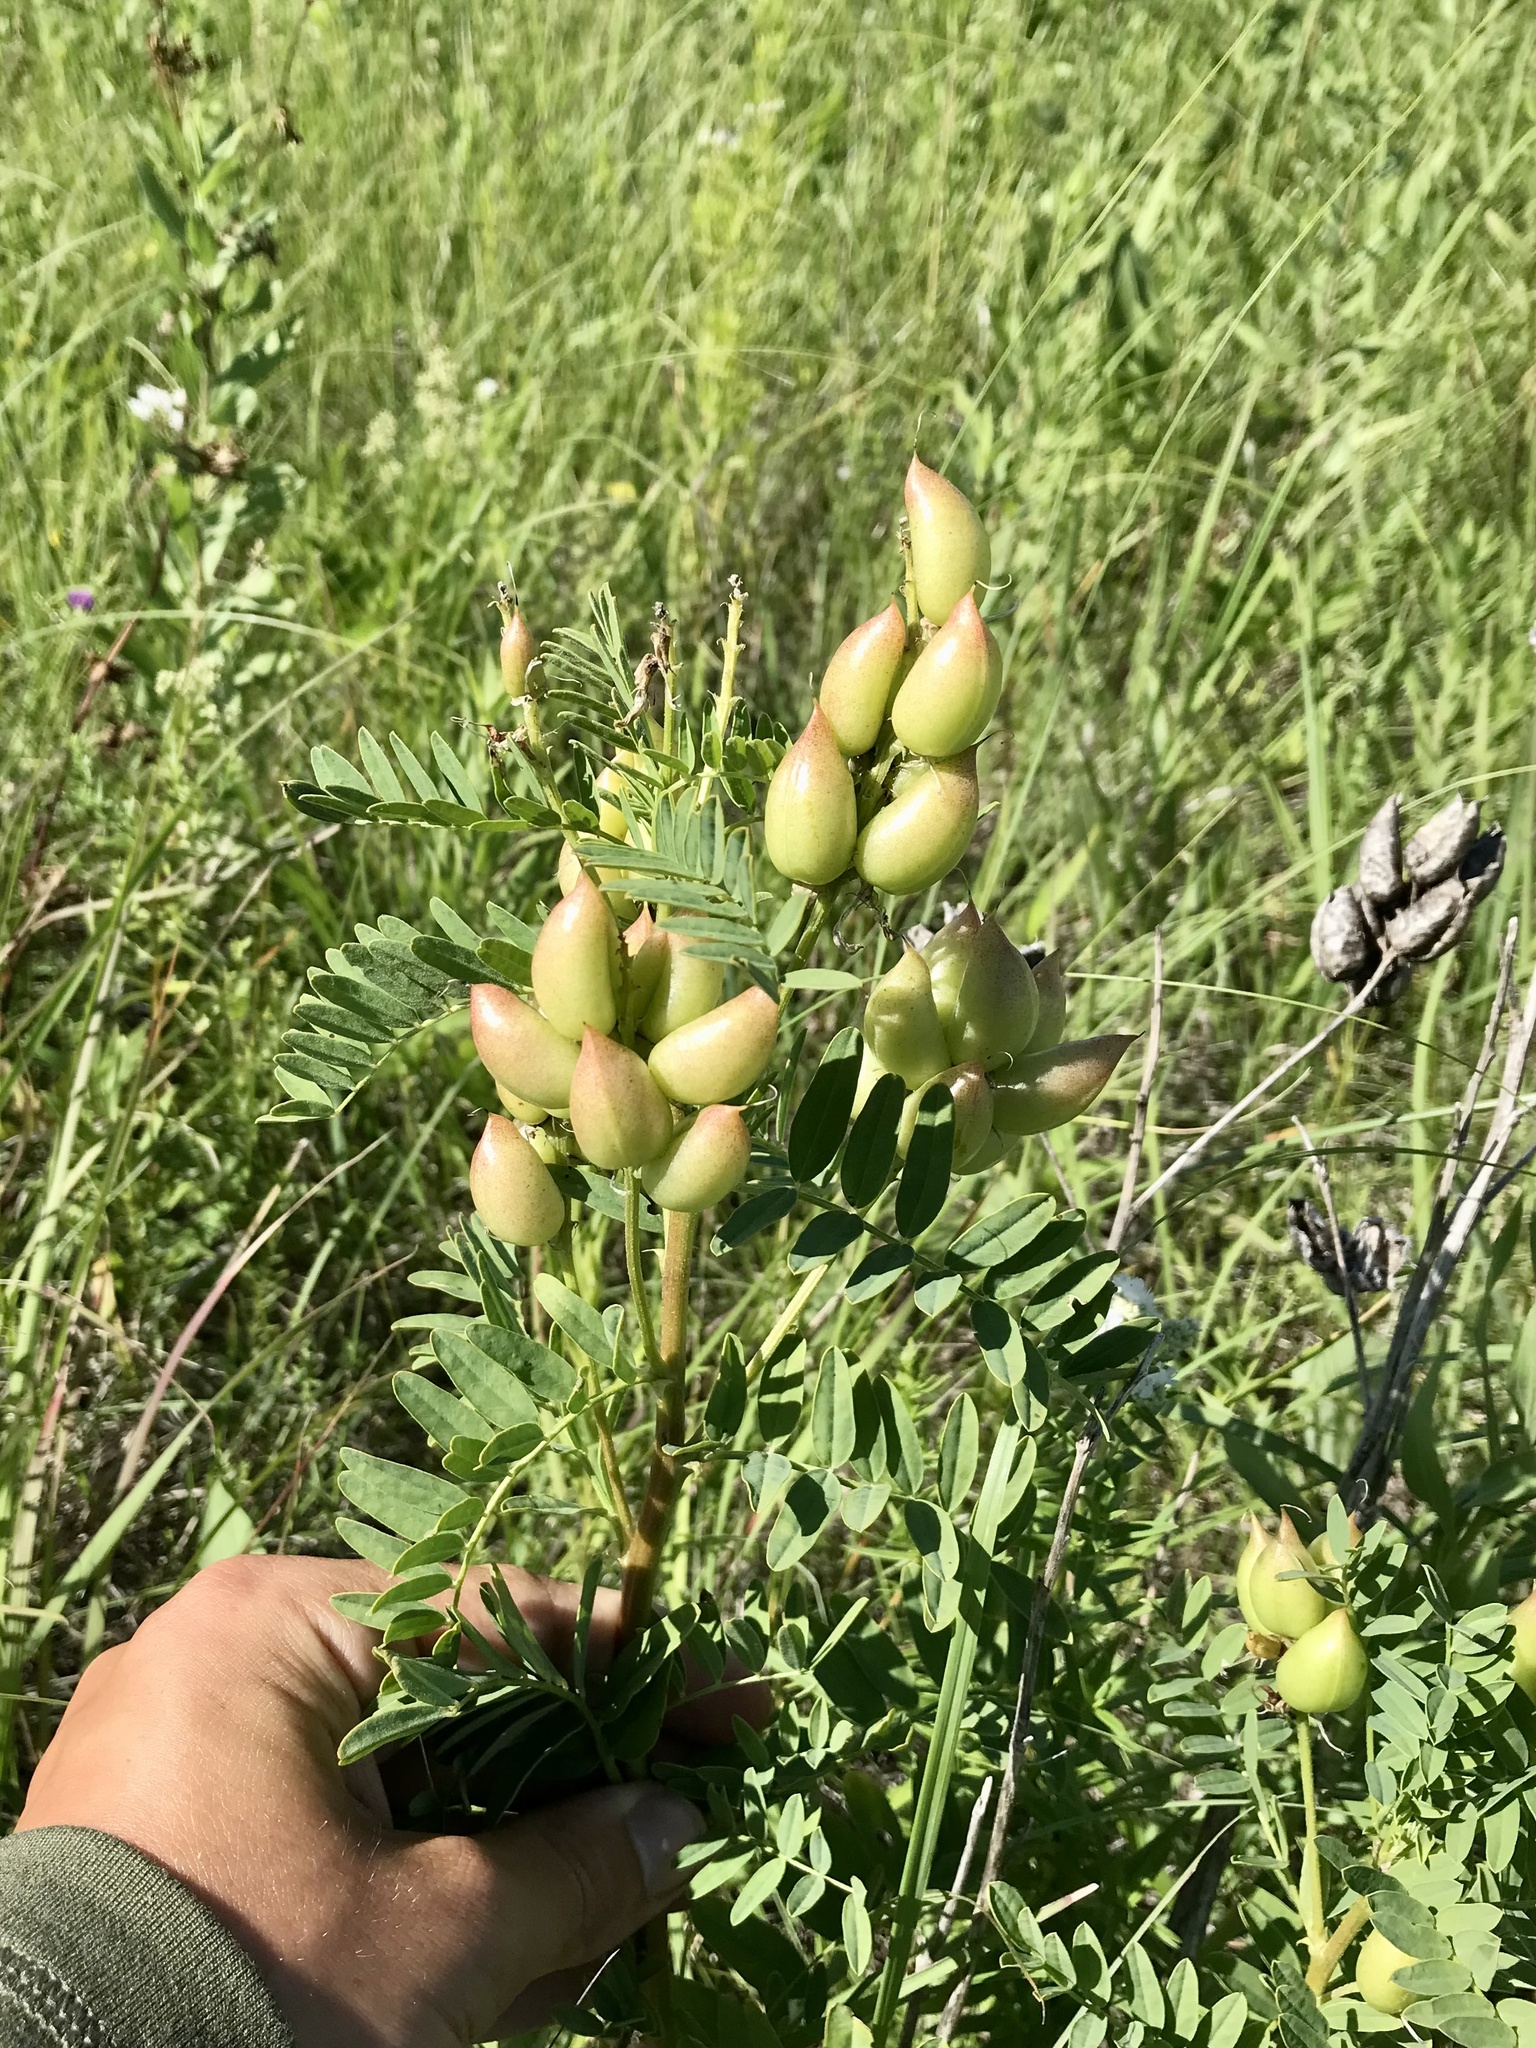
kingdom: Plantae
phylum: Tracheophyta
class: Magnoliopsida
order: Fabales
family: Fabaceae
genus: Astragalus
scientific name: Astragalus neglectus
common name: Cooper's milk-vetch
